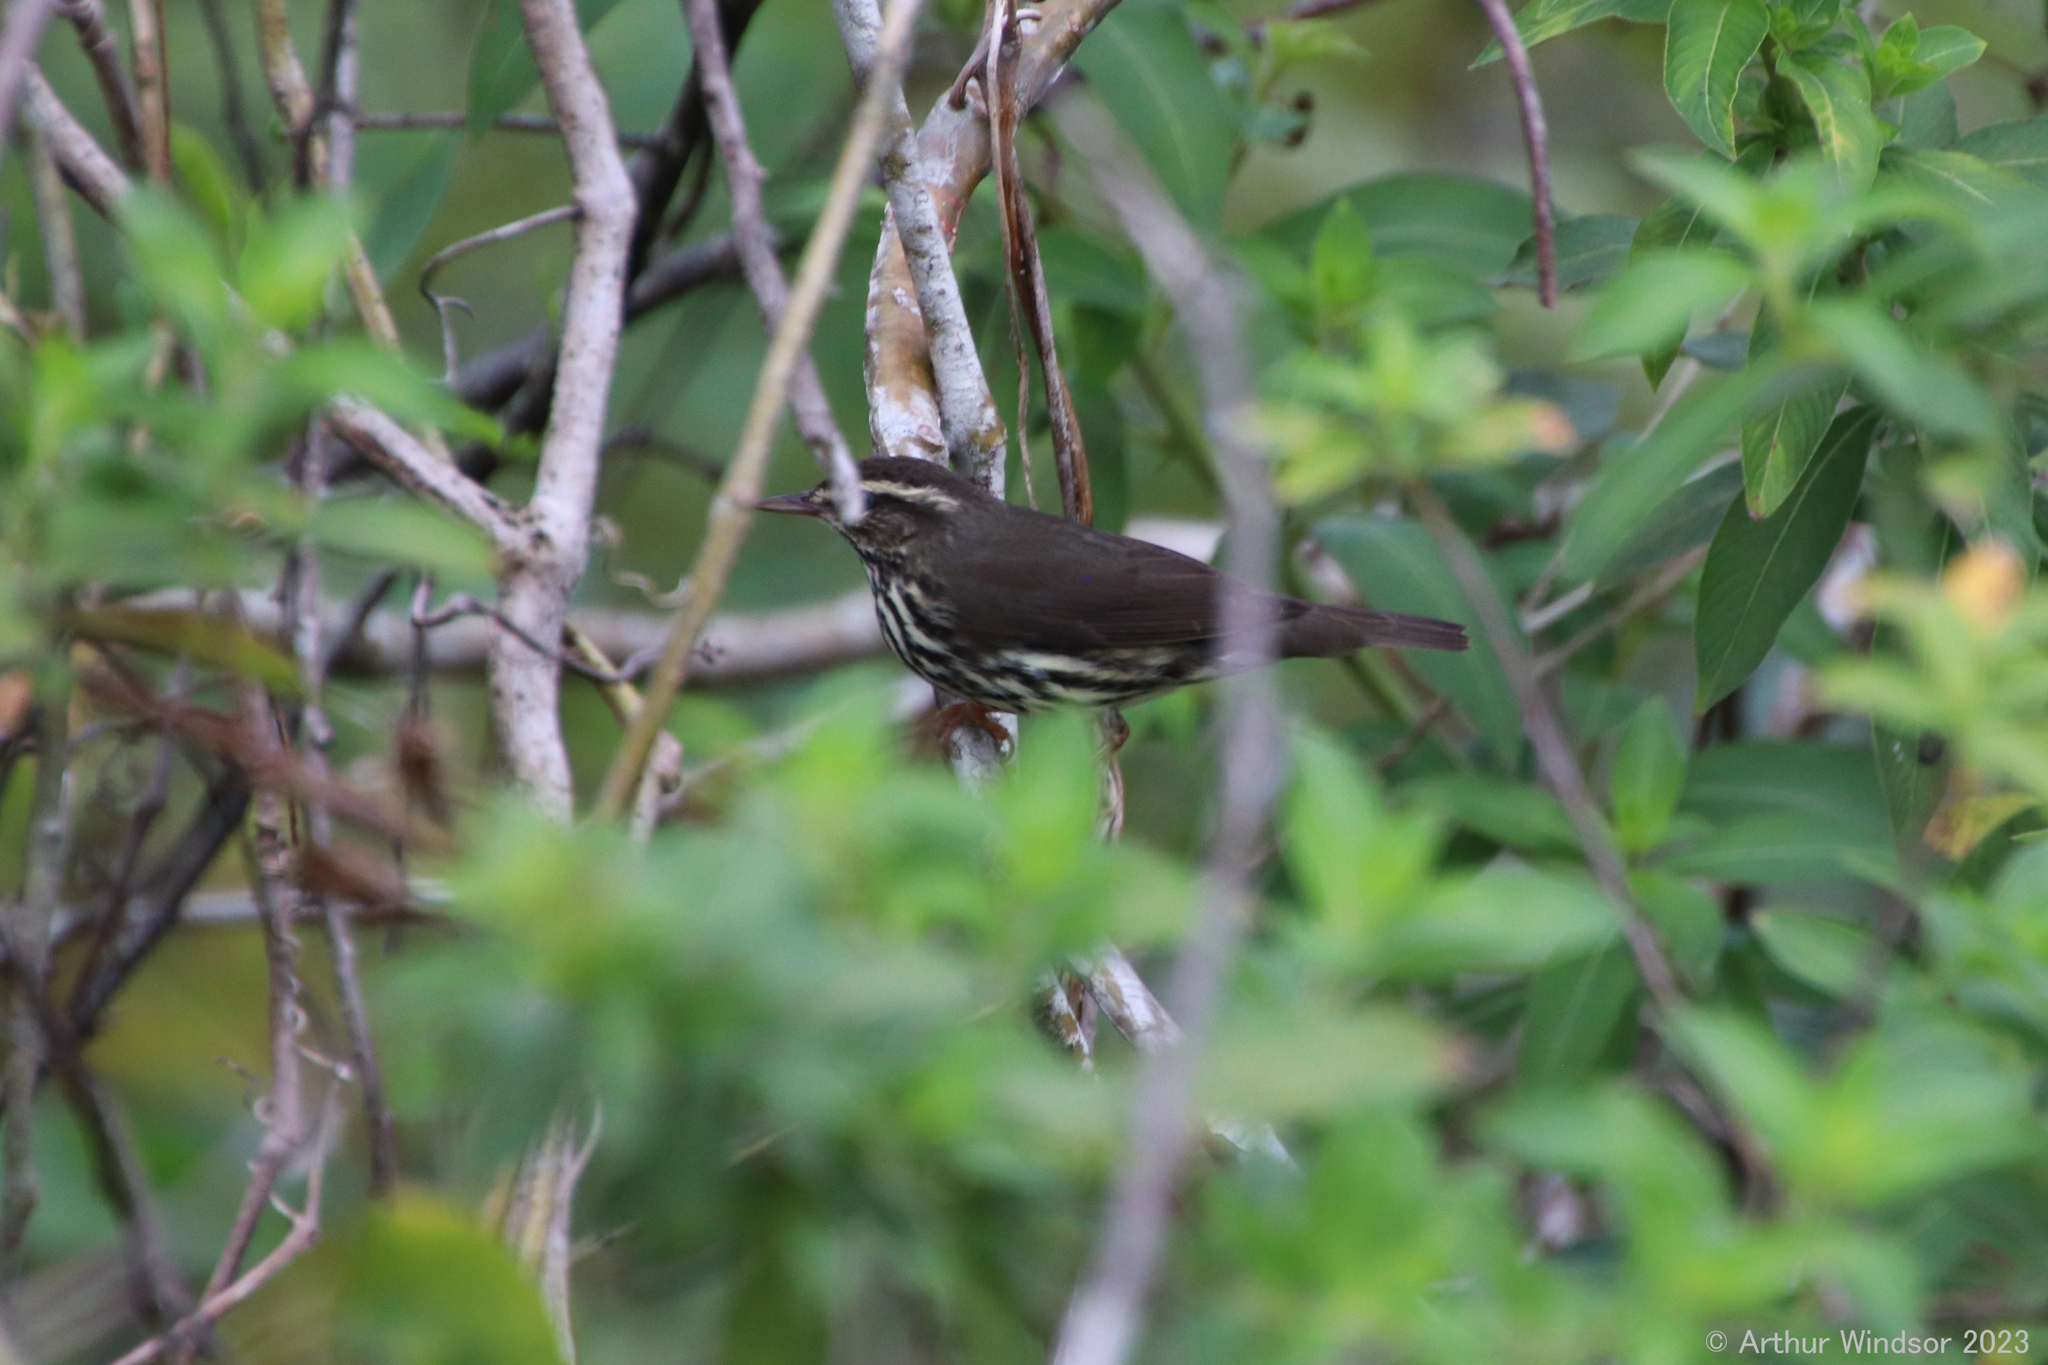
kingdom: Animalia
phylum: Chordata
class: Aves
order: Passeriformes
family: Parulidae
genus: Parkesia
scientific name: Parkesia noveboracensis
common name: Northern waterthrush
